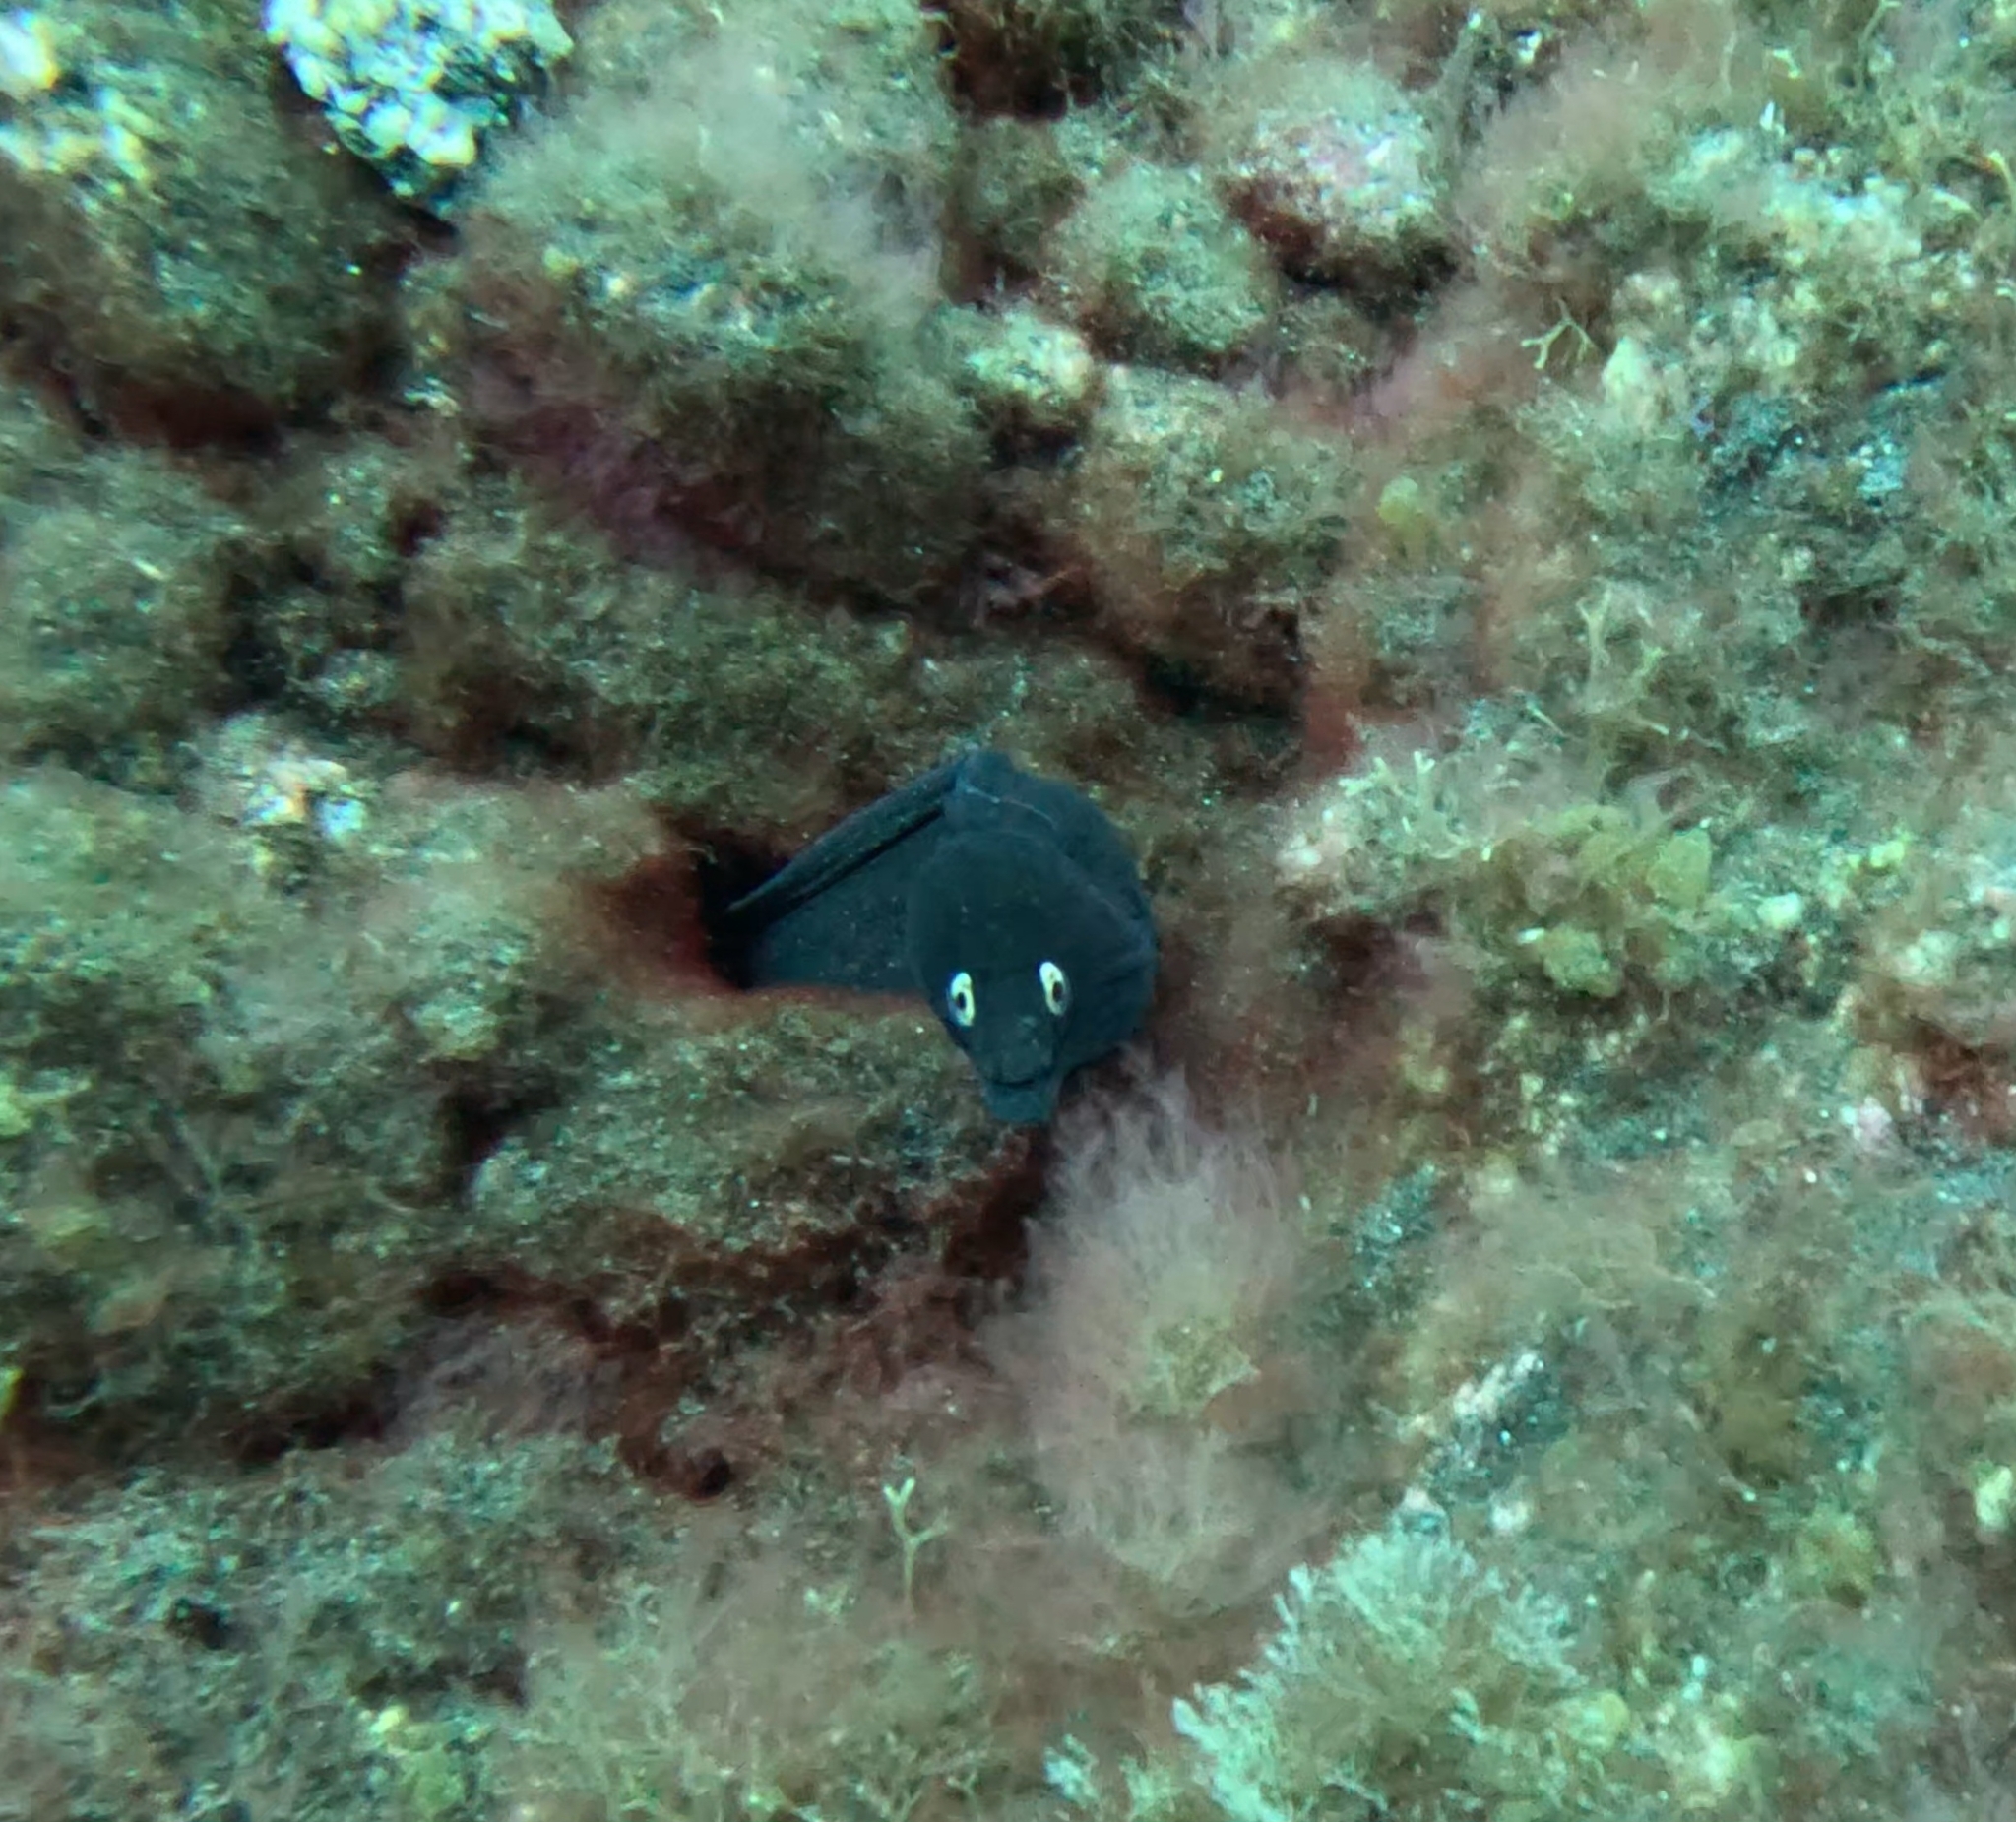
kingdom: Animalia
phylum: Chordata
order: Anguilliformes
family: Muraenidae
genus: Muraena
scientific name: Muraena augusti
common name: Mediterranean moray
